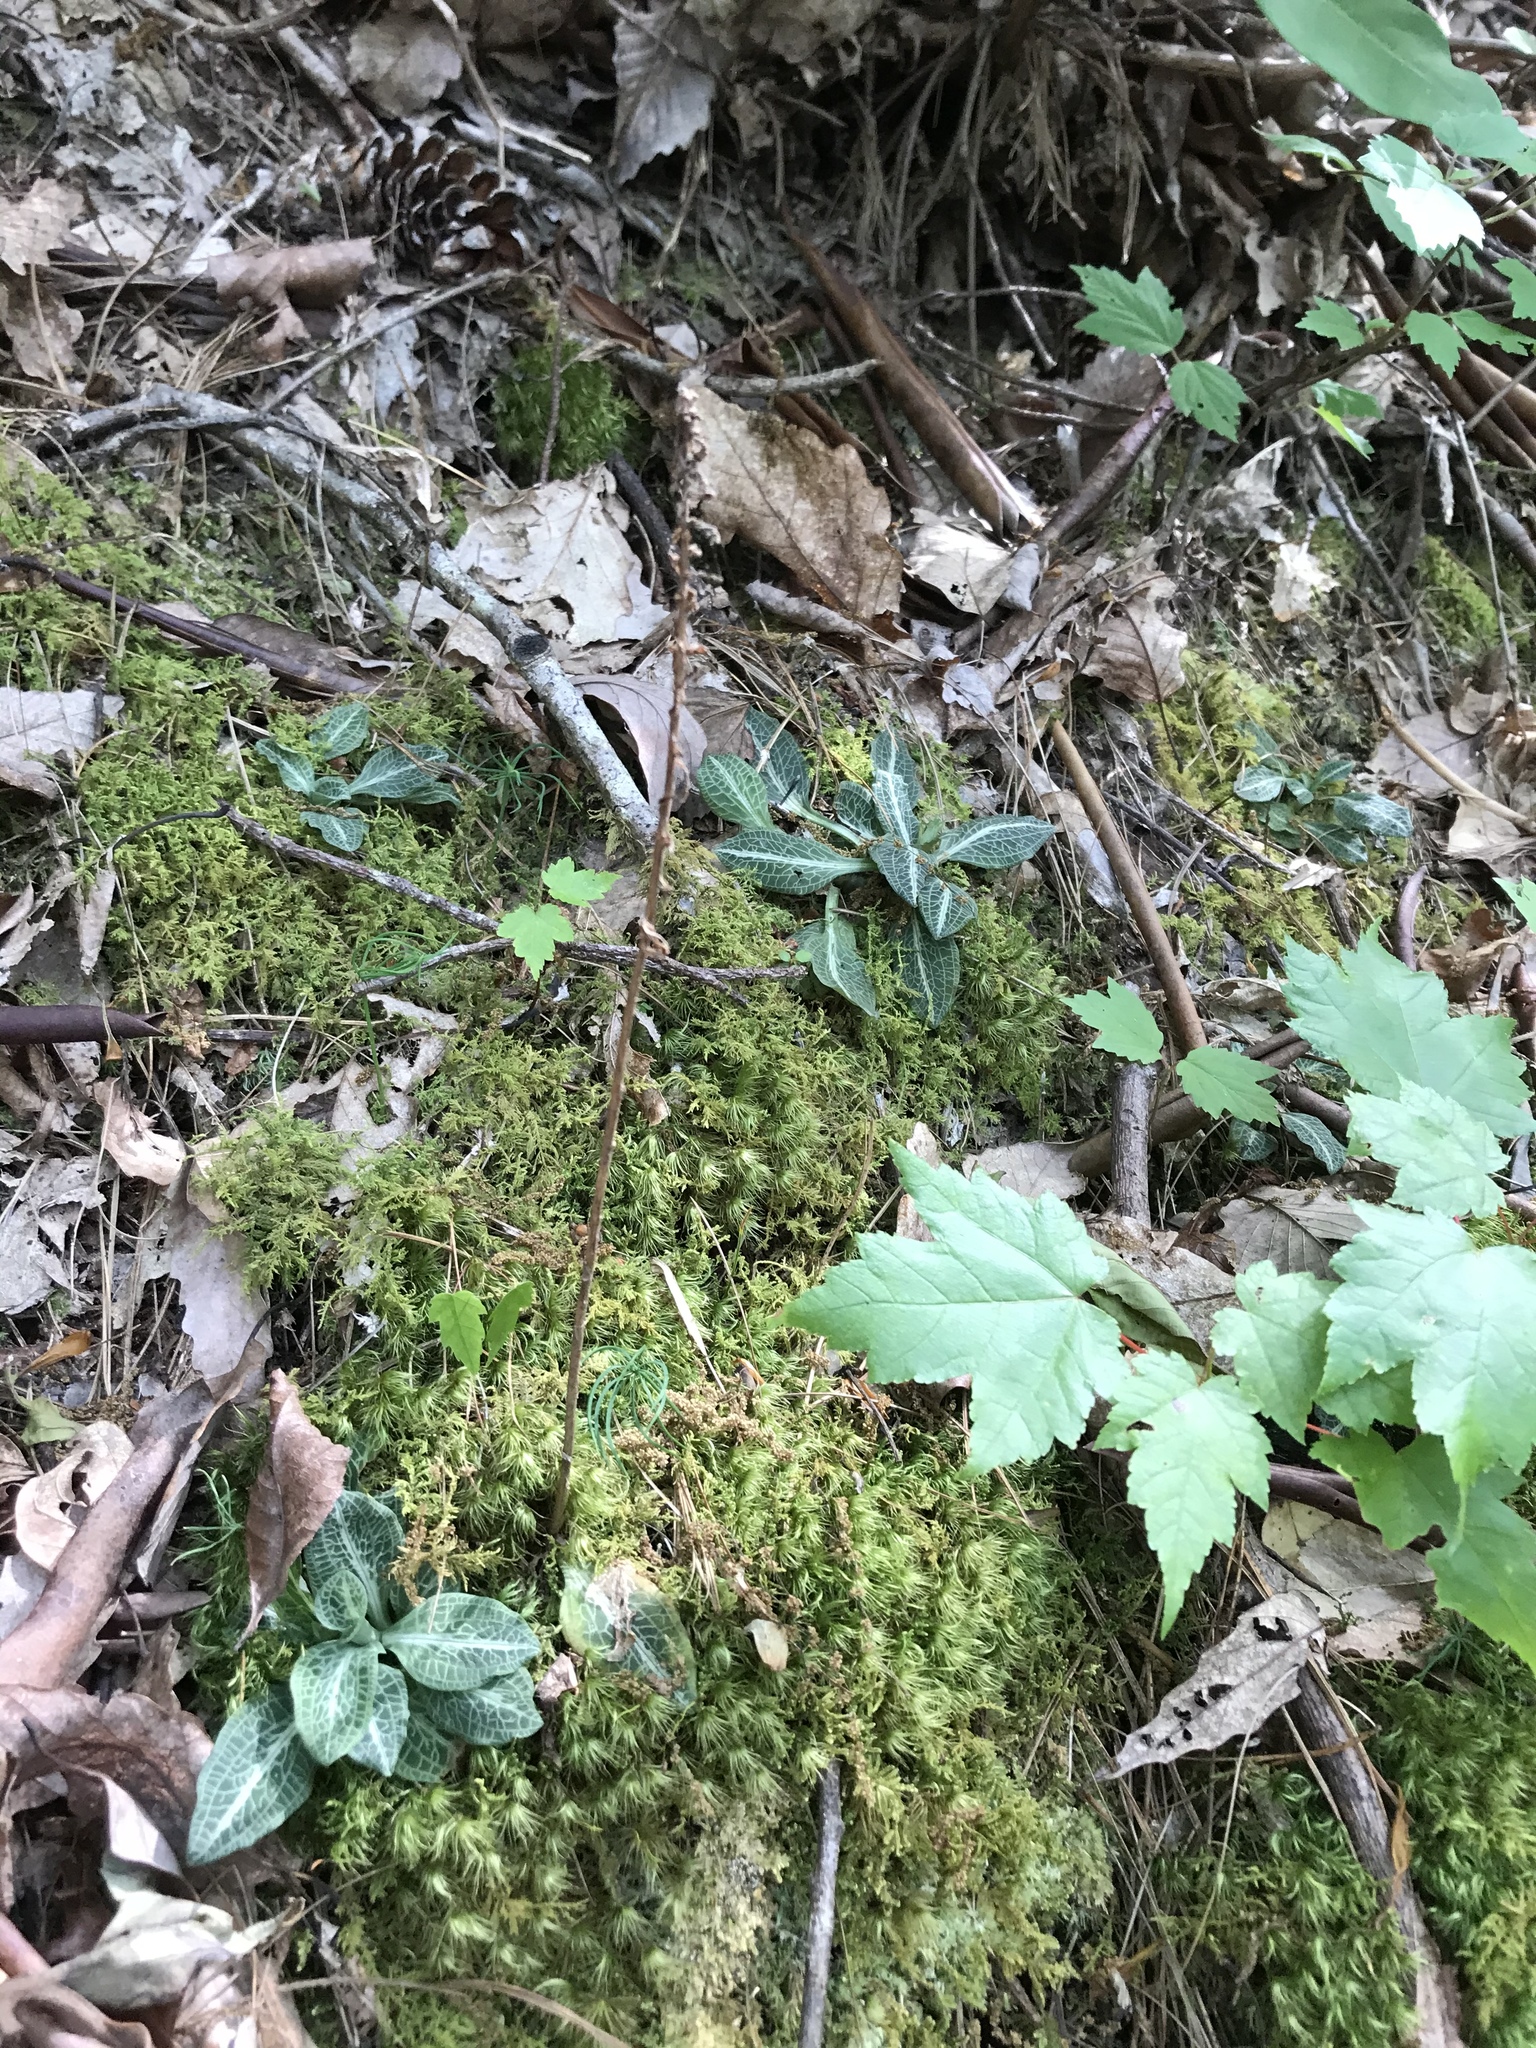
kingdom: Plantae
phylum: Tracheophyta
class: Liliopsida
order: Asparagales
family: Orchidaceae
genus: Goodyera
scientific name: Goodyera pubescens
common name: Downy rattlesnake-plantain
